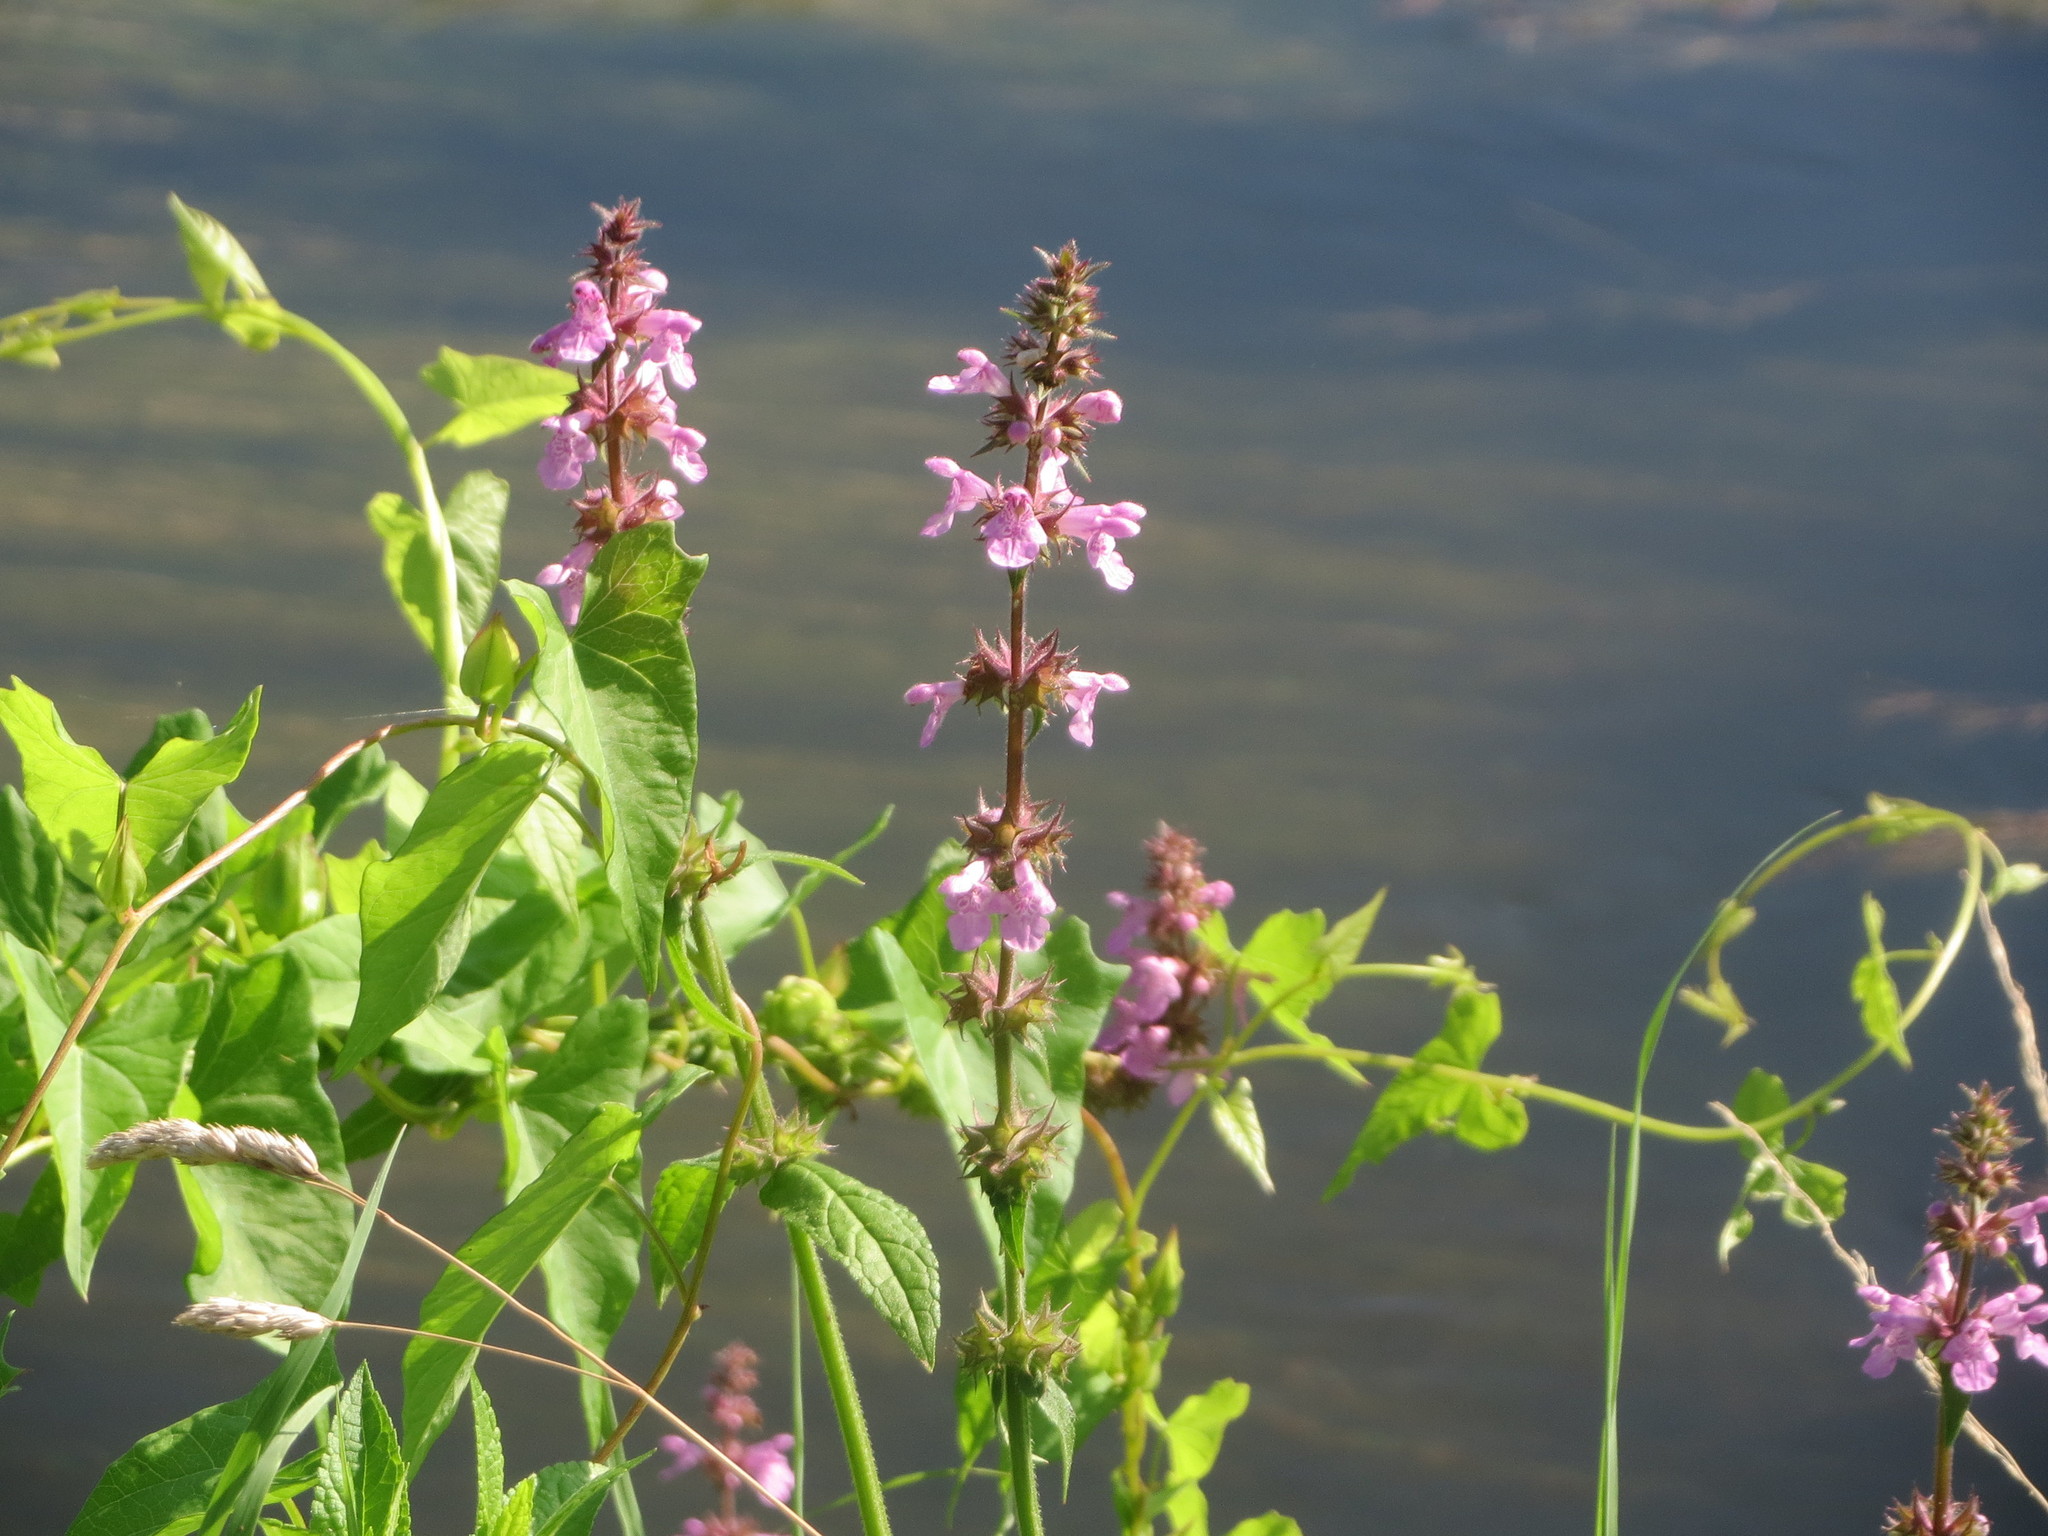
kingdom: Plantae
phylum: Tracheophyta
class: Magnoliopsida
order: Lamiales
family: Lamiaceae
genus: Stachys
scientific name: Stachys palustris
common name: Marsh woundwort
